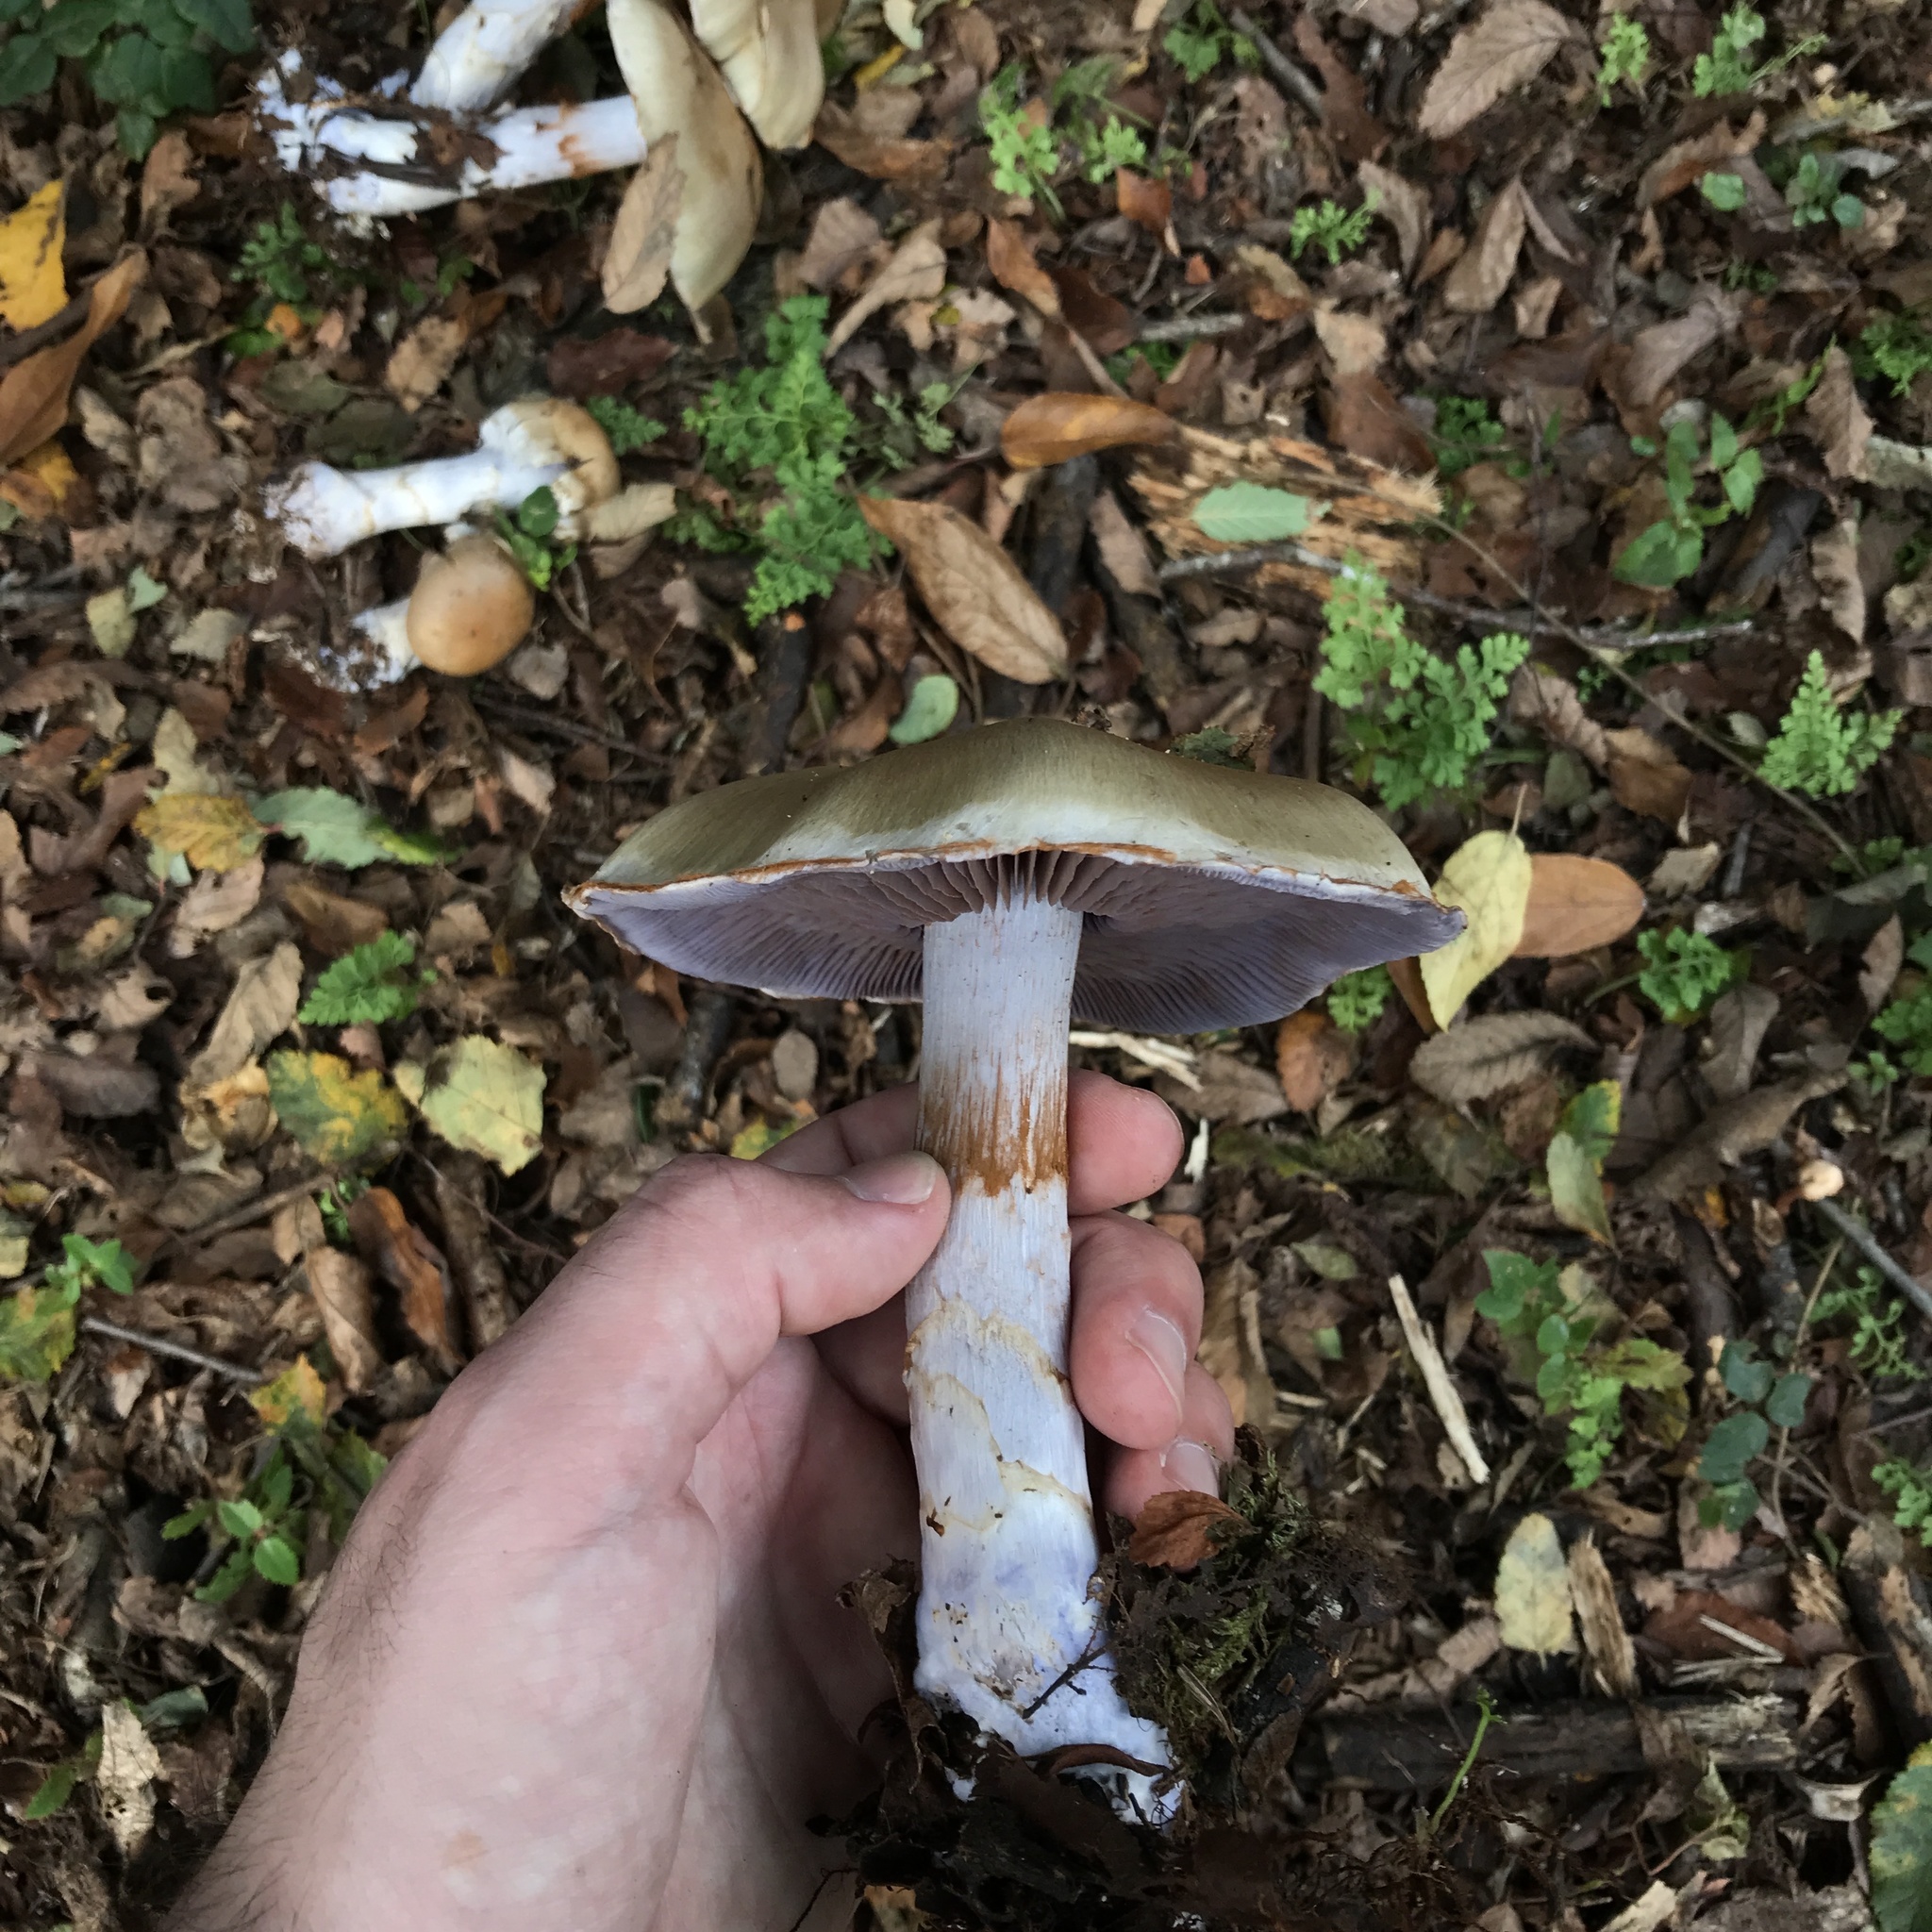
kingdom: Fungi
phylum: Basidiomycota
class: Agaricomycetes
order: Agaricales
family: Cortinariaceae
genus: Cortinarius
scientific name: Cortinarius stephanopus
